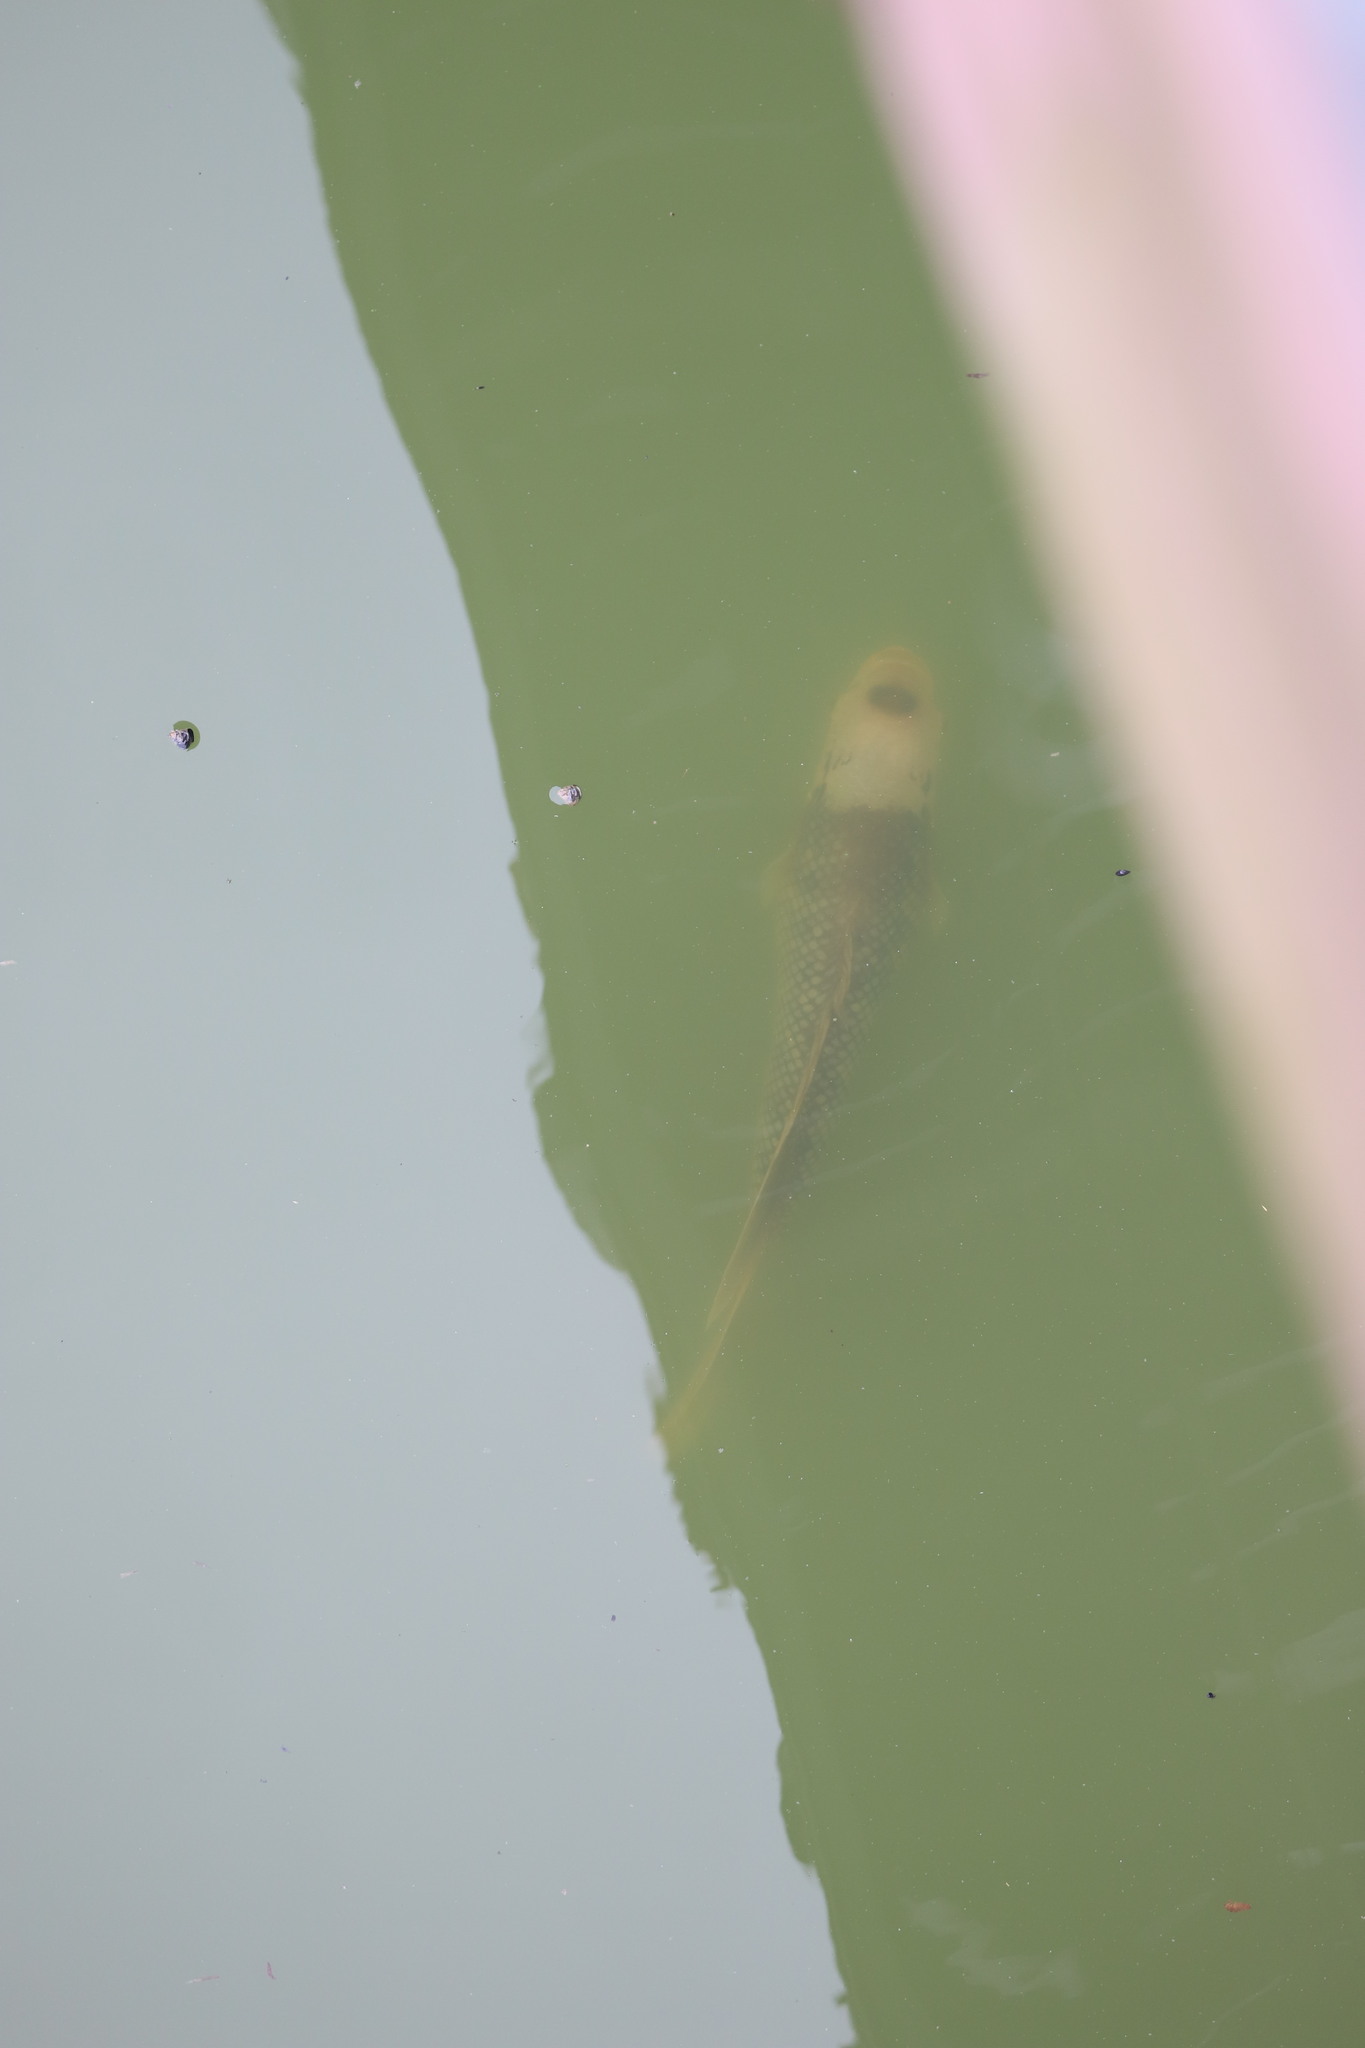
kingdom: Animalia
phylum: Chordata
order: Perciformes
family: Osphronemidae
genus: Osphronemus
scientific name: Osphronemus goramy
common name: Giant gourami
